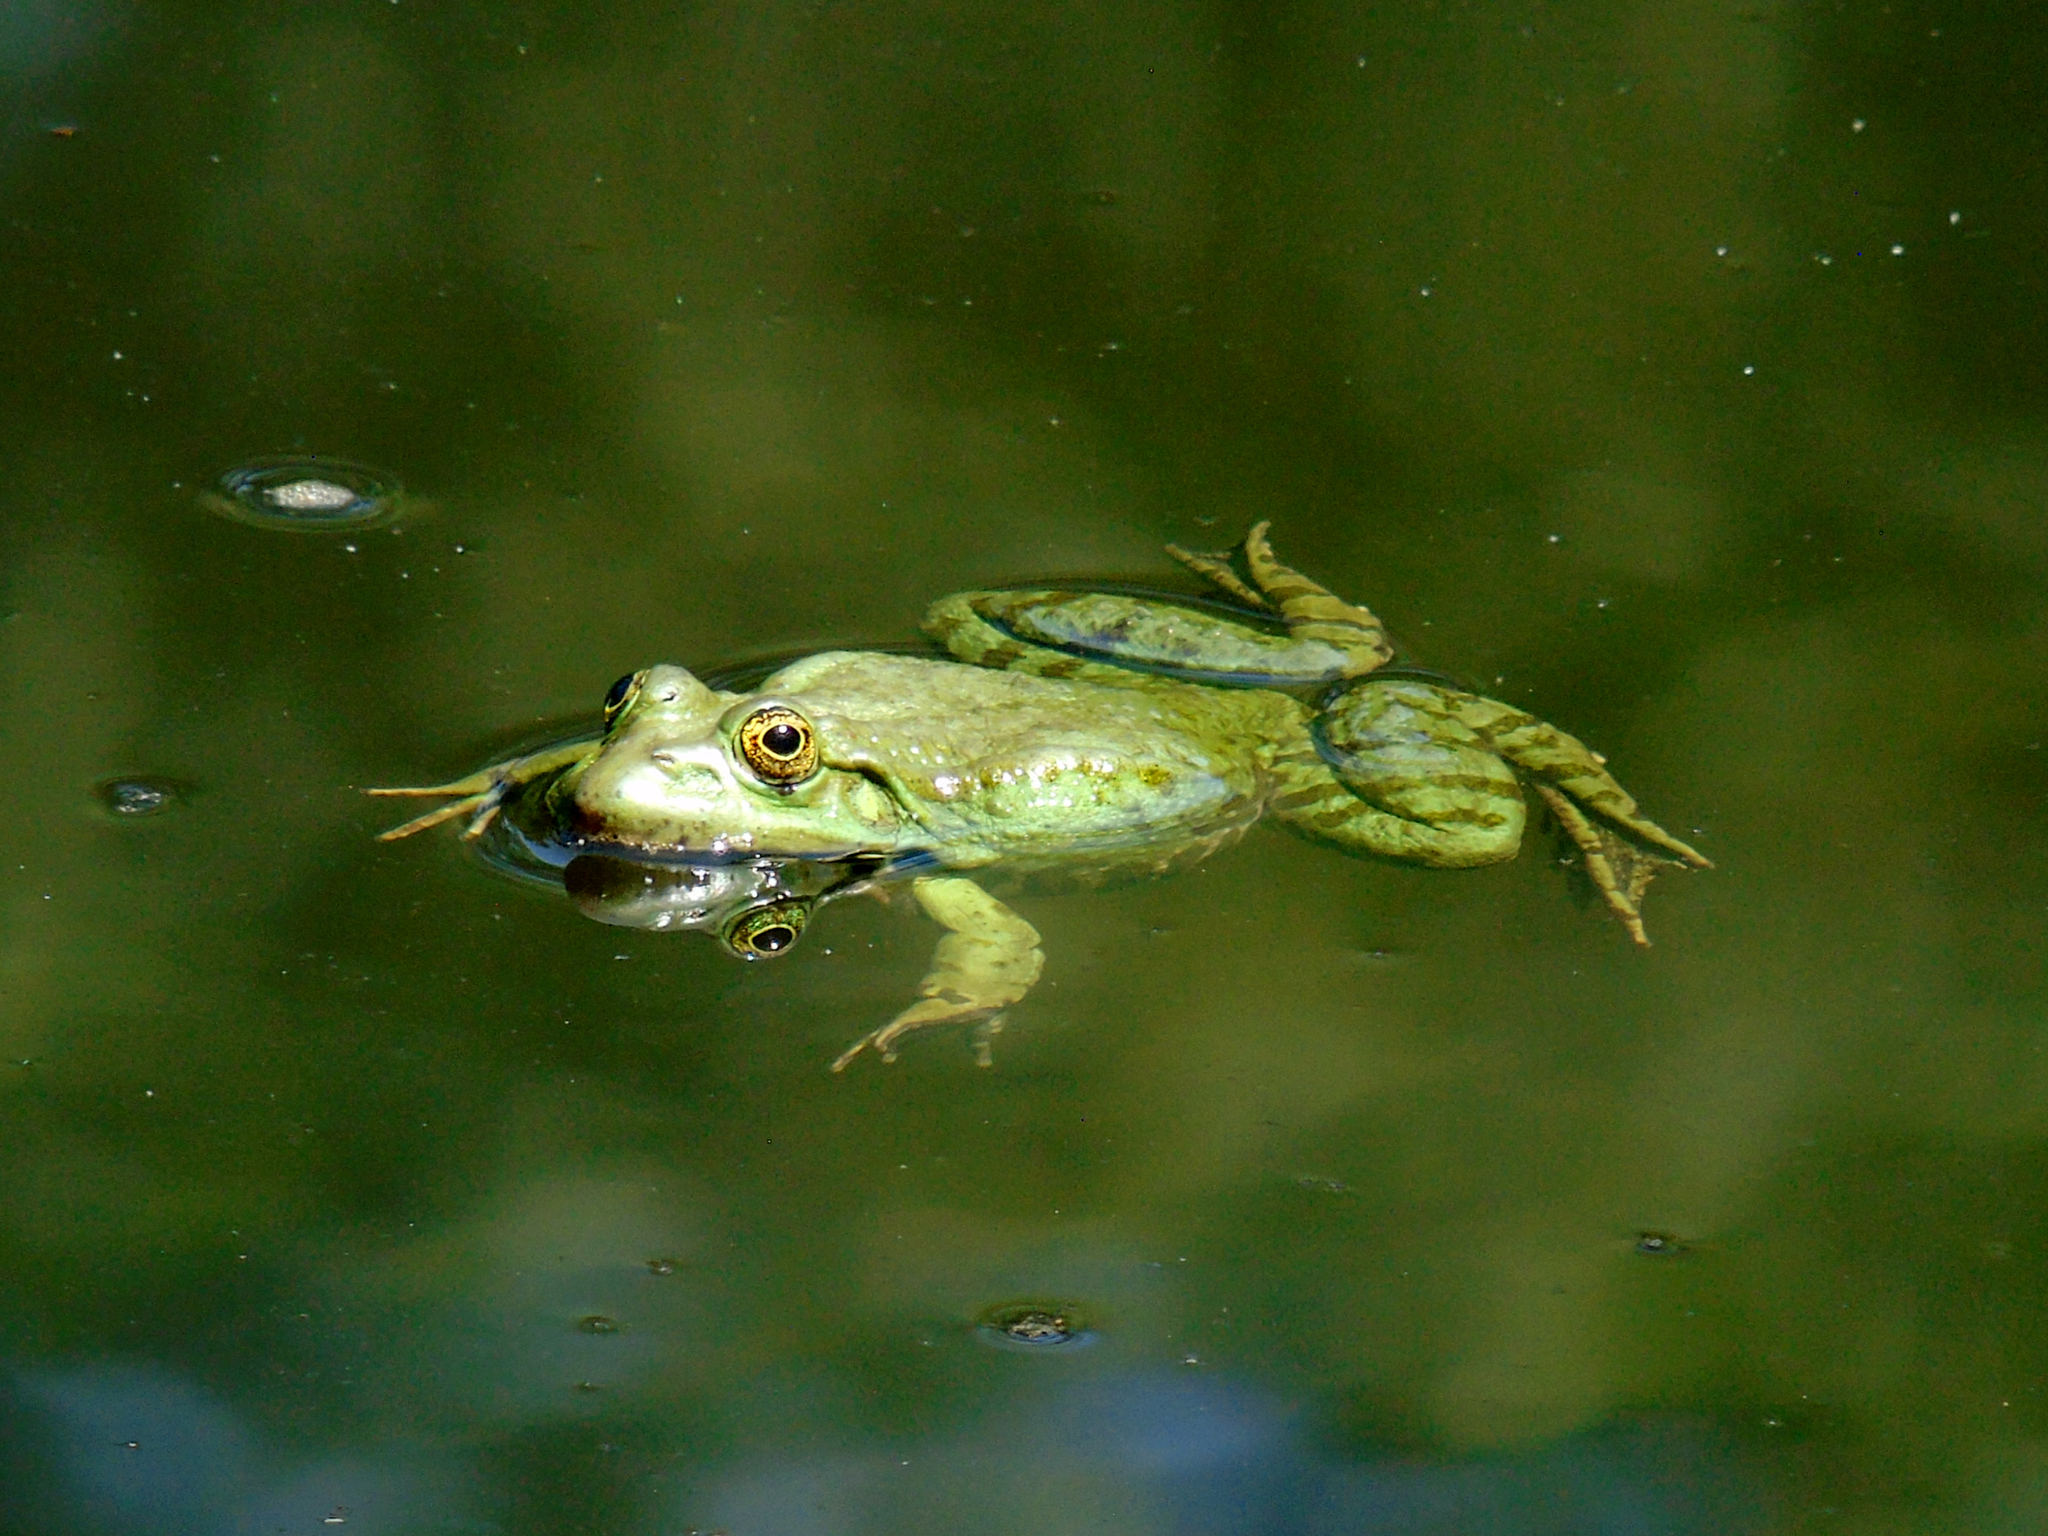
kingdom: Animalia
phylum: Chordata
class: Amphibia
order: Anura
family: Ranidae
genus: Pelophylax
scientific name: Pelophylax ridibundus
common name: Marsh frog
